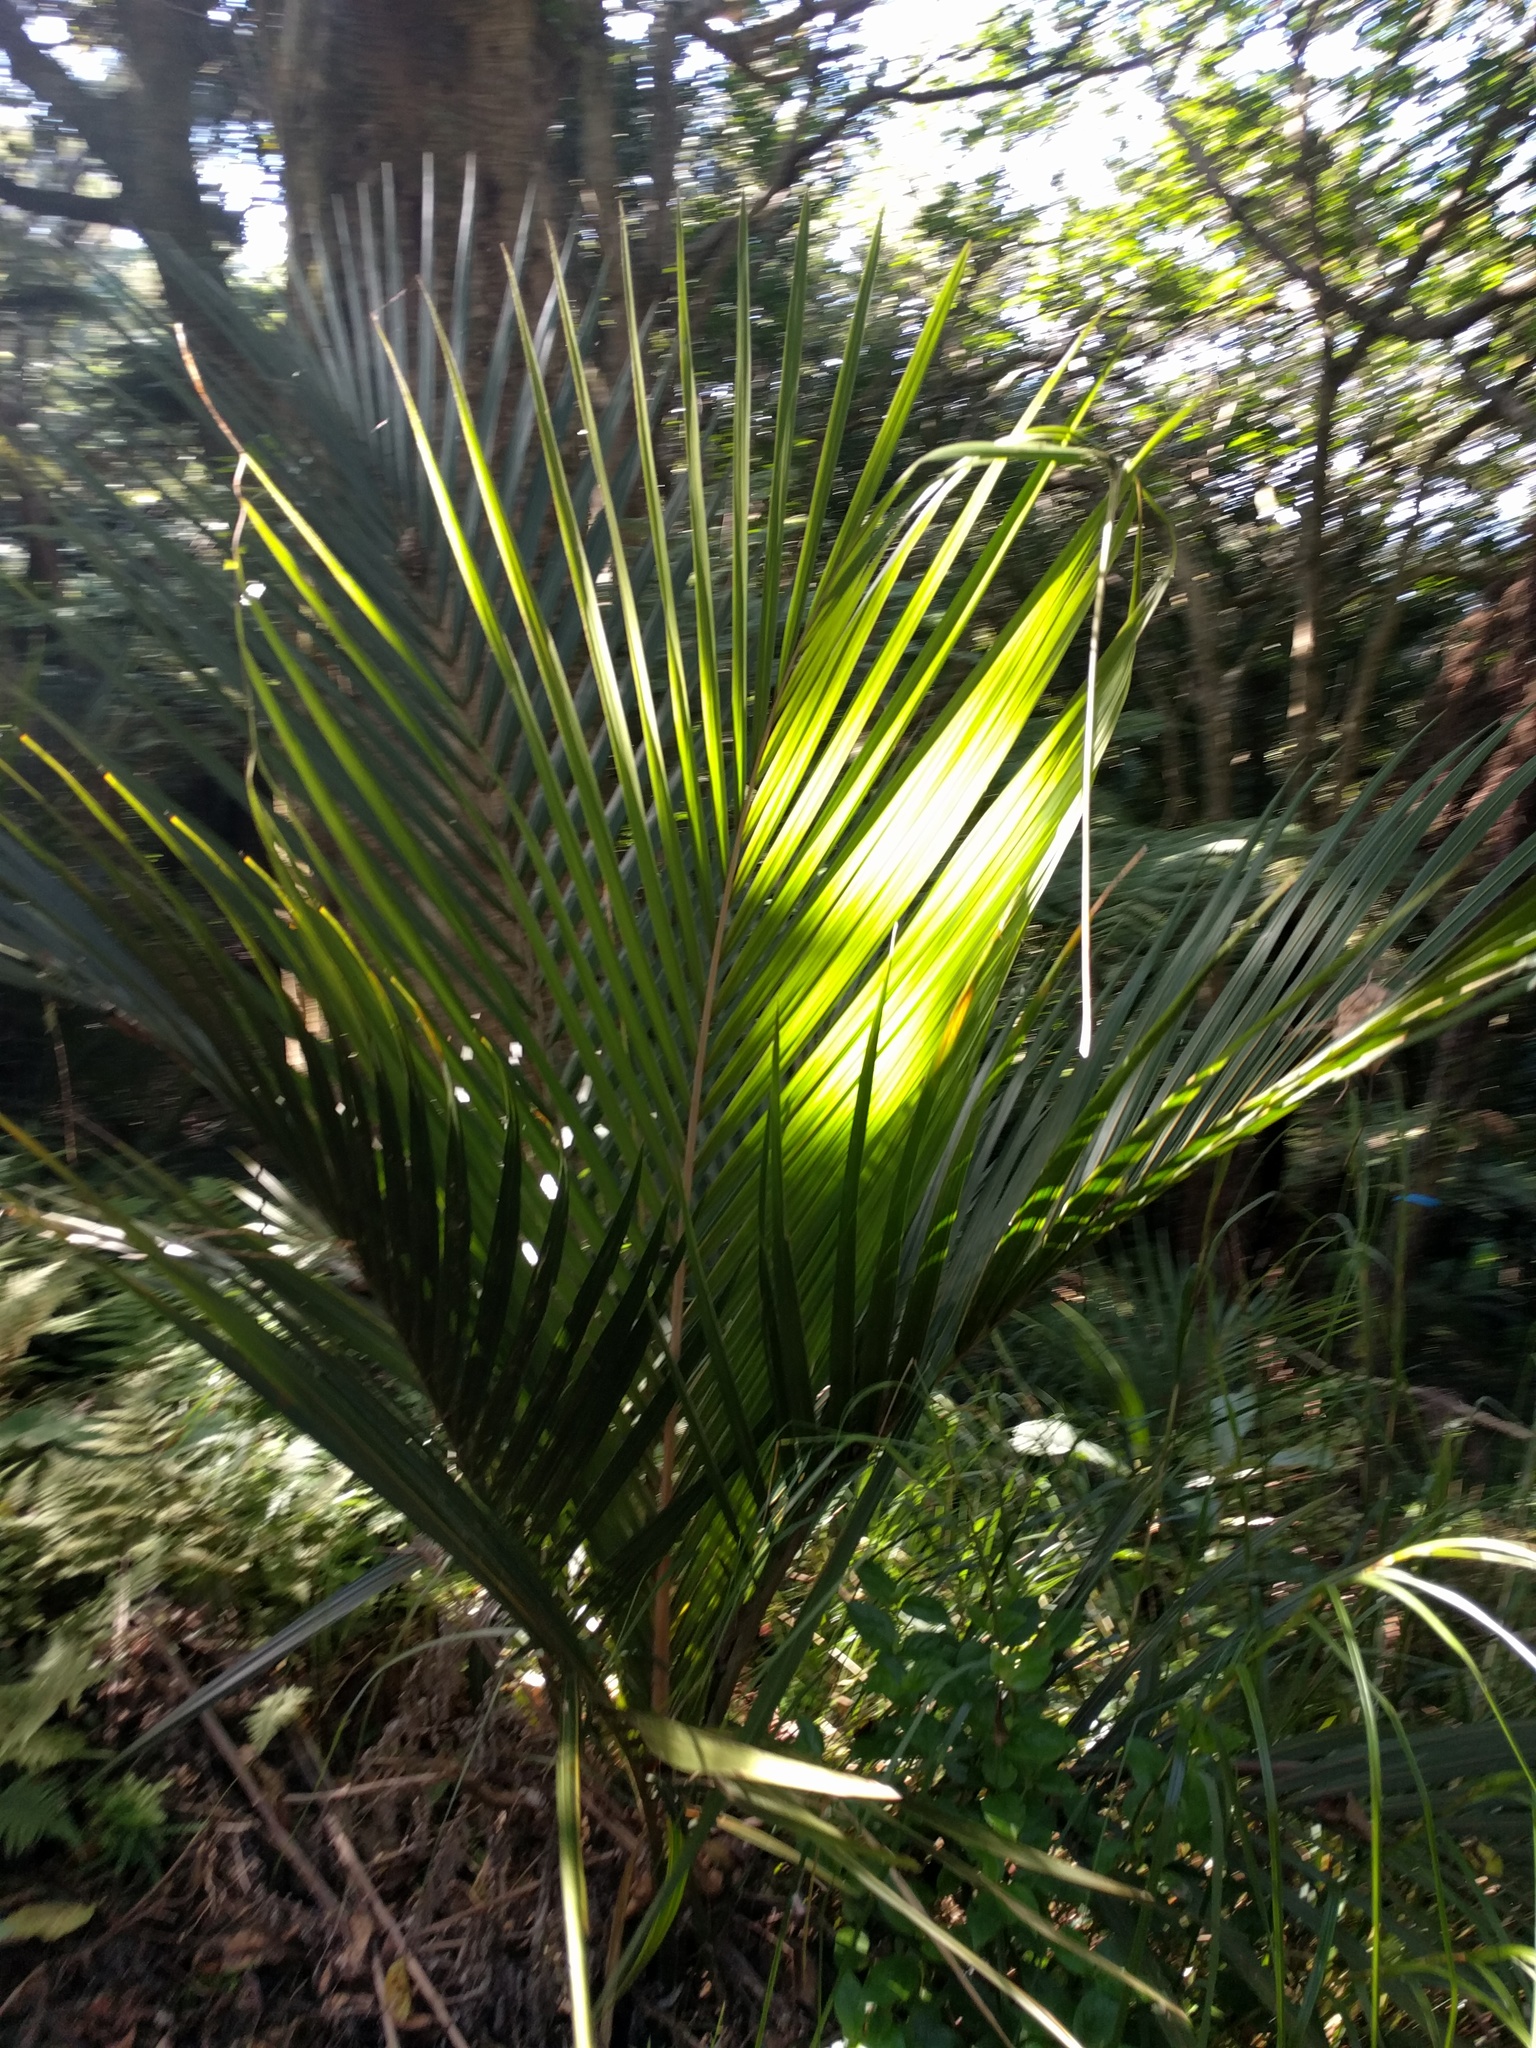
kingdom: Plantae
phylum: Tracheophyta
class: Liliopsida
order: Arecales
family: Arecaceae
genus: Rhopalostylis
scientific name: Rhopalostylis sapida
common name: Feather-duster palm
